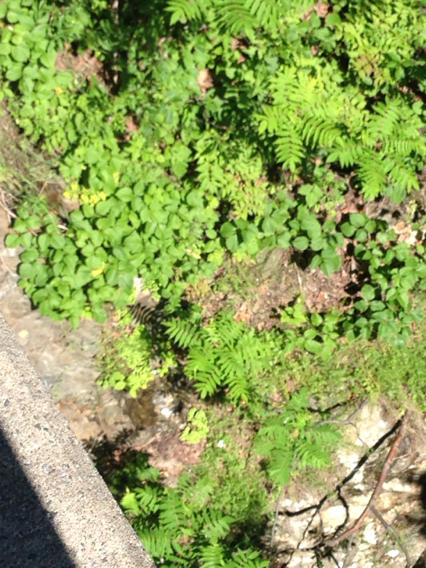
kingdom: Plantae
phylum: Tracheophyta
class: Magnoliopsida
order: Sapindales
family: Anacardiaceae
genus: Toxicodendron
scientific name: Toxicodendron radicans
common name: Poison ivy
